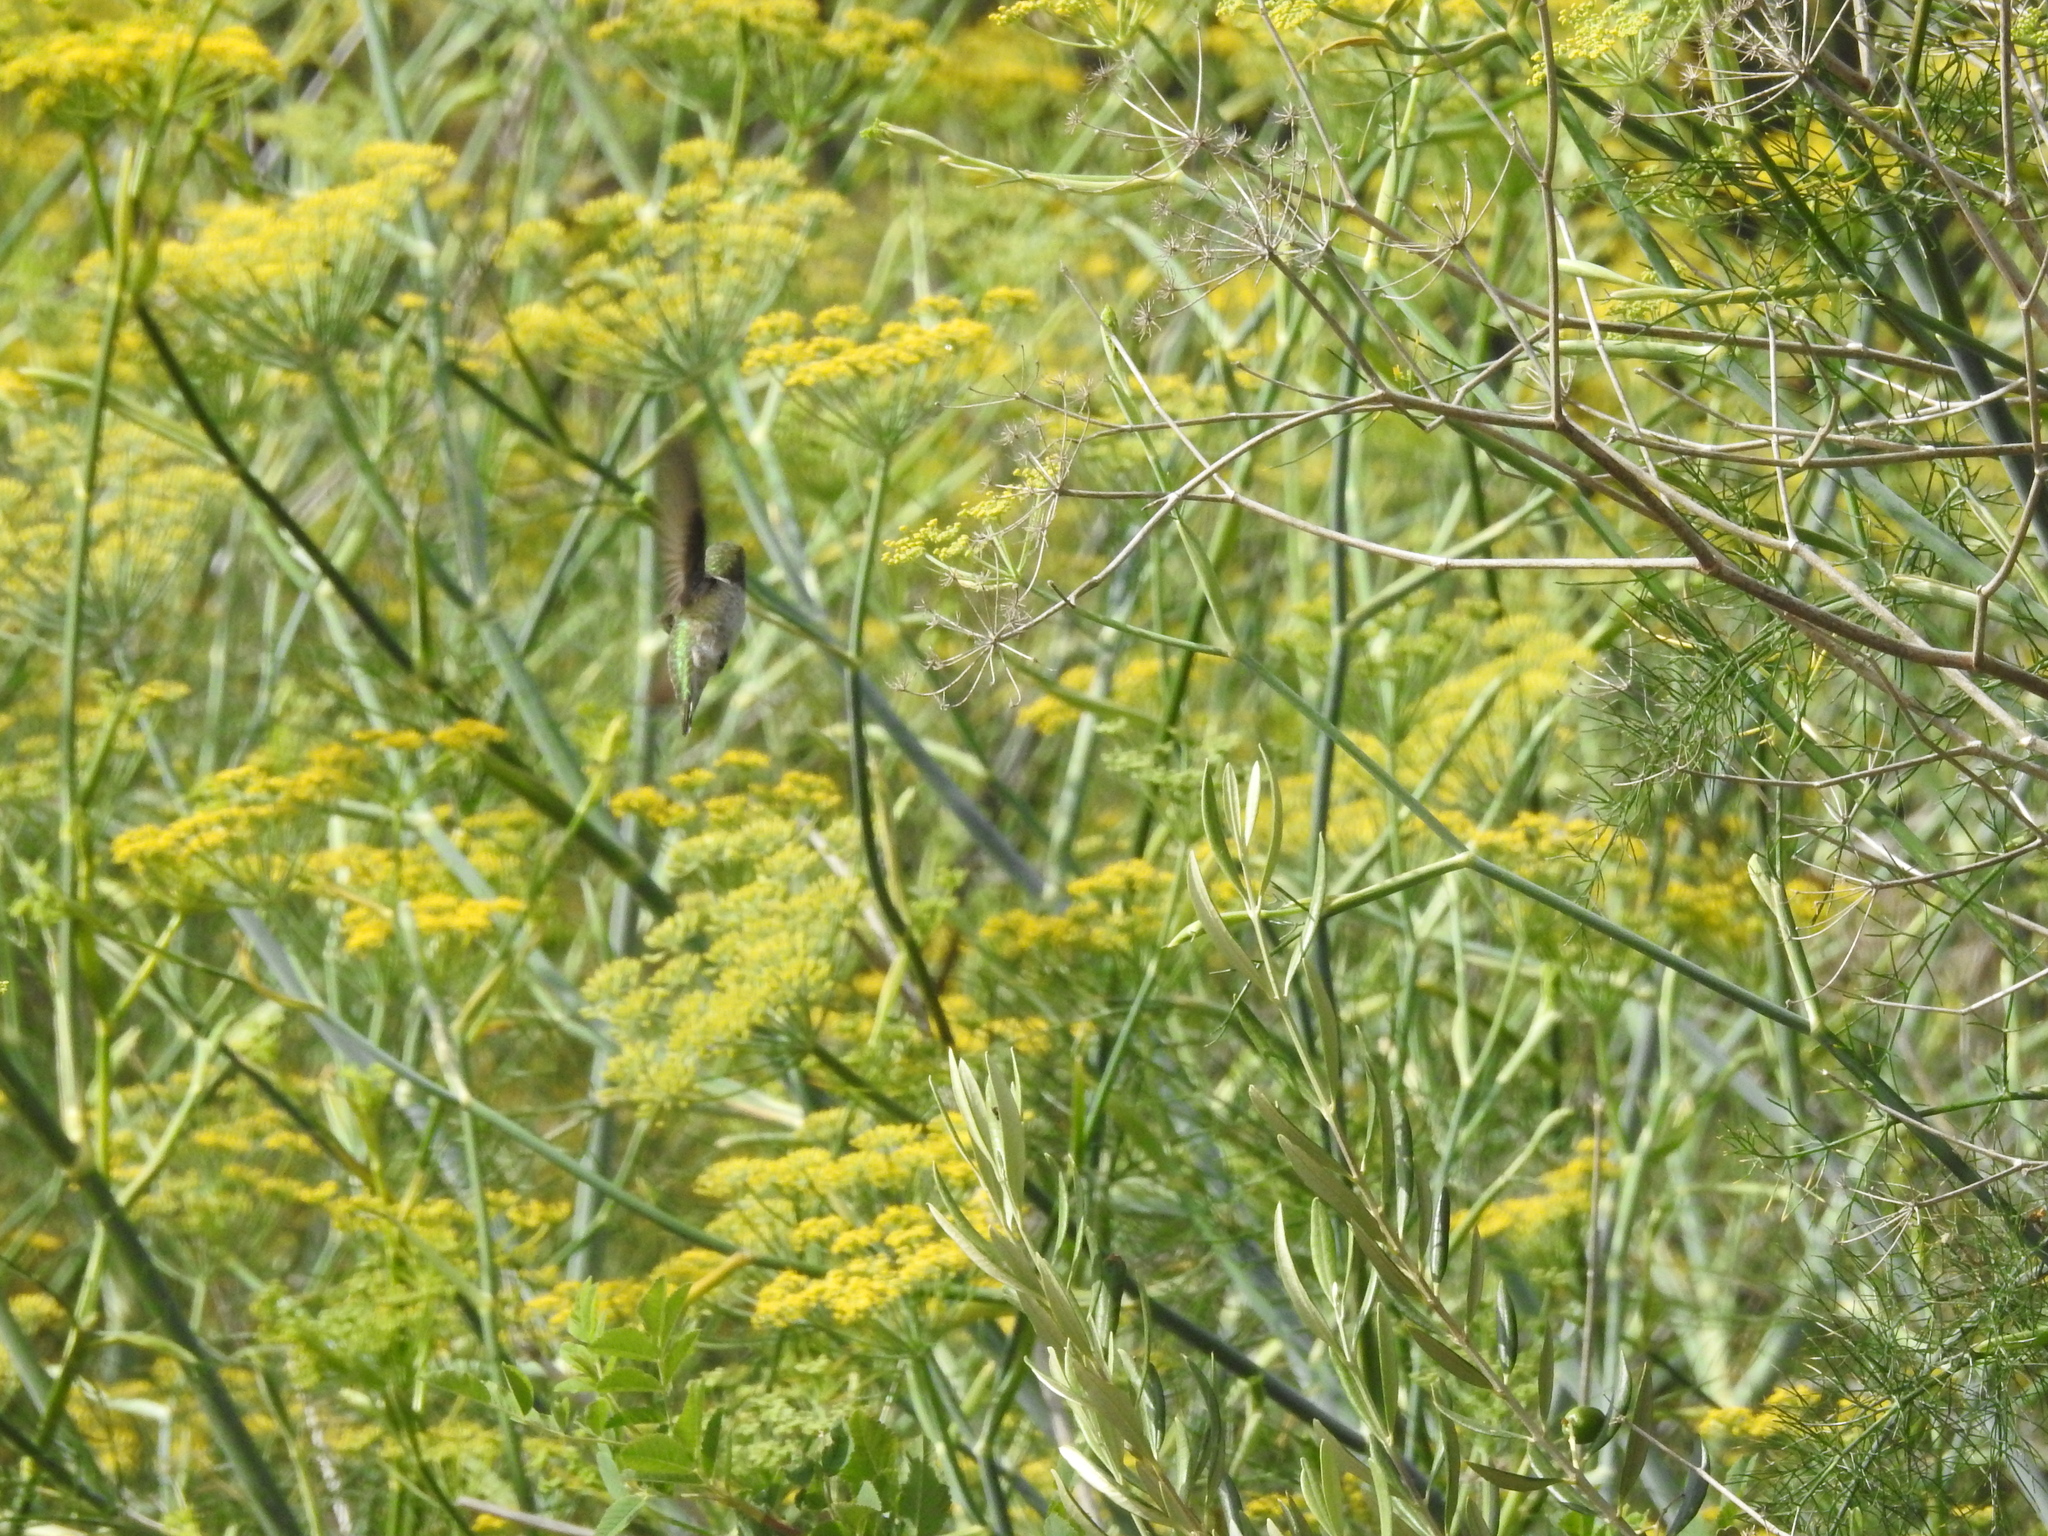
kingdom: Animalia
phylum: Chordata
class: Aves
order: Apodiformes
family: Trochilidae
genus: Calypte
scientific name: Calypte anna
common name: Anna's hummingbird
